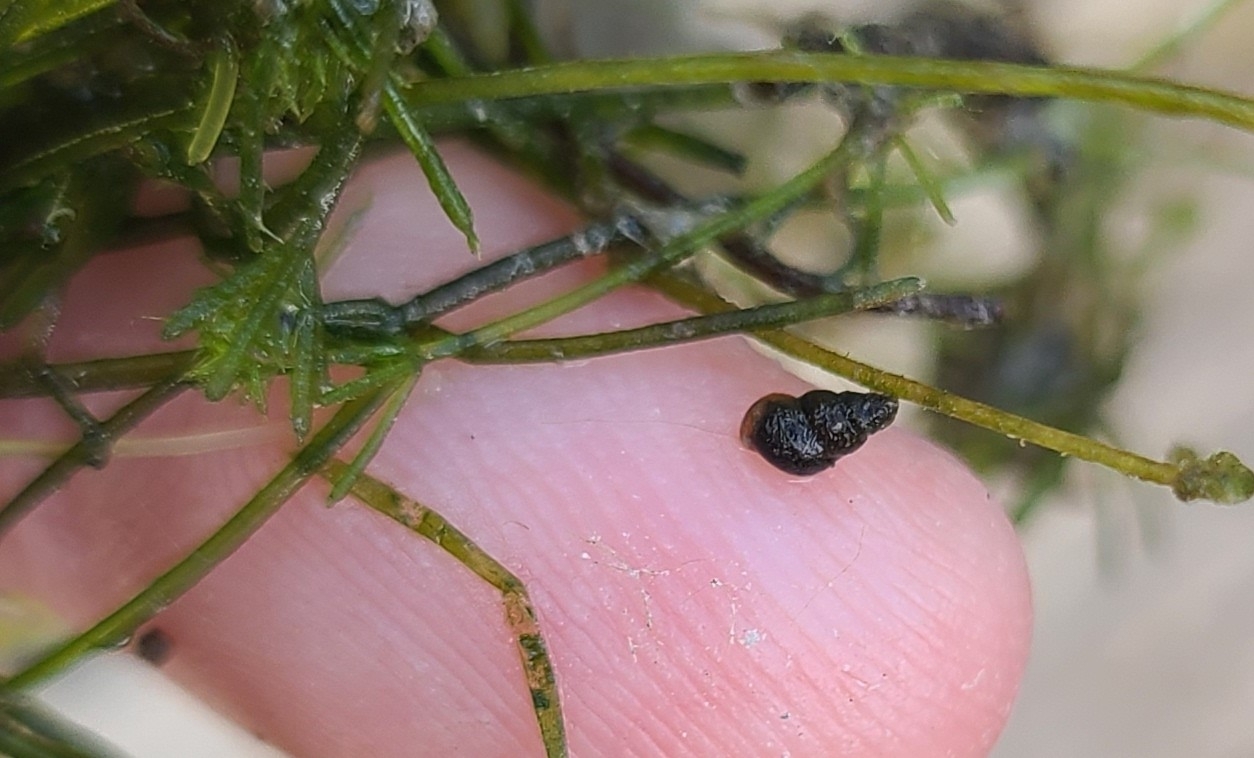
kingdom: Animalia
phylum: Mollusca
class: Gastropoda
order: Littorinimorpha
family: Tateidae
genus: Potamopyrgus
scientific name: Potamopyrgus antipodarum
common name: Jenkins' spire snail
